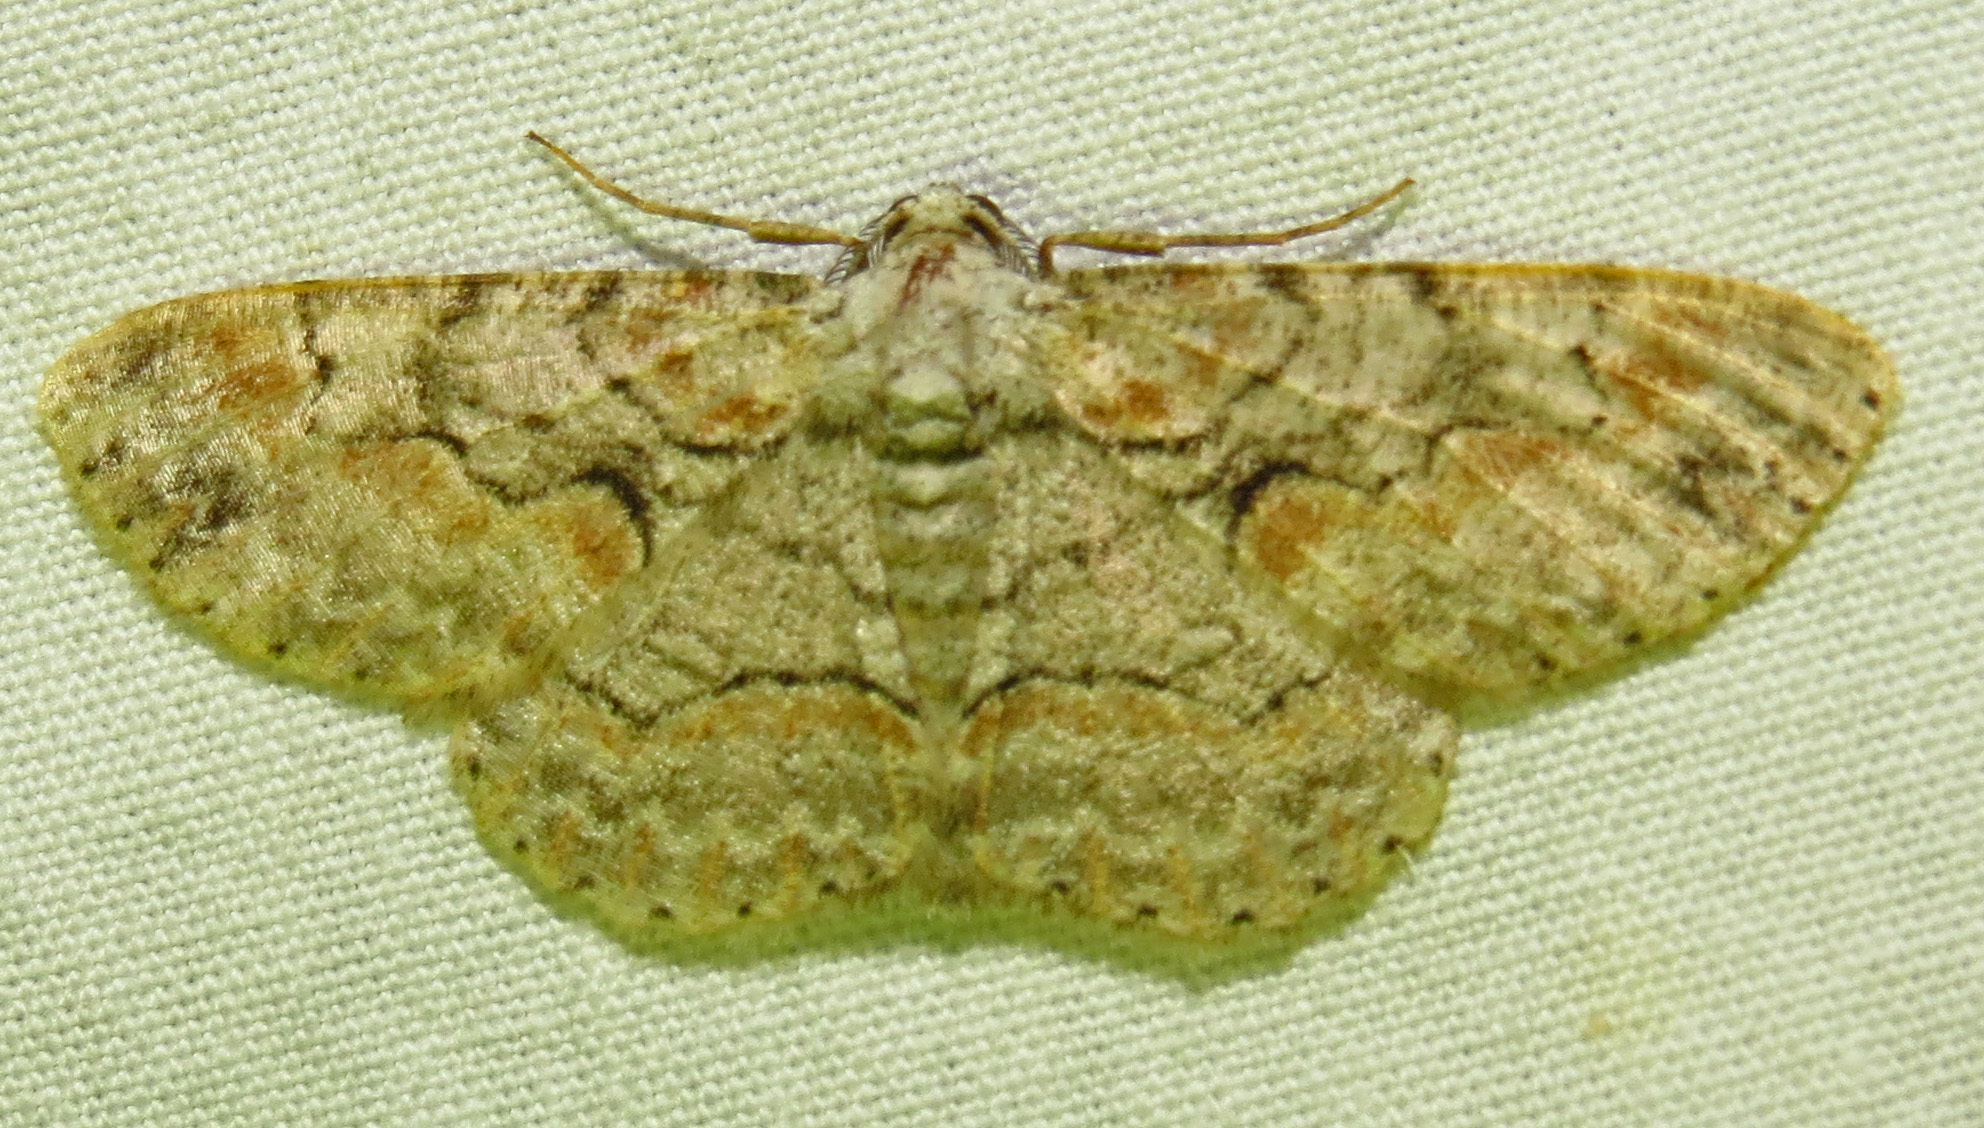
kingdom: Animalia
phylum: Arthropoda
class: Insecta
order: Lepidoptera
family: Geometridae
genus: Iridopsis
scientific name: Iridopsis defectaria
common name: Brown-shaded gray
